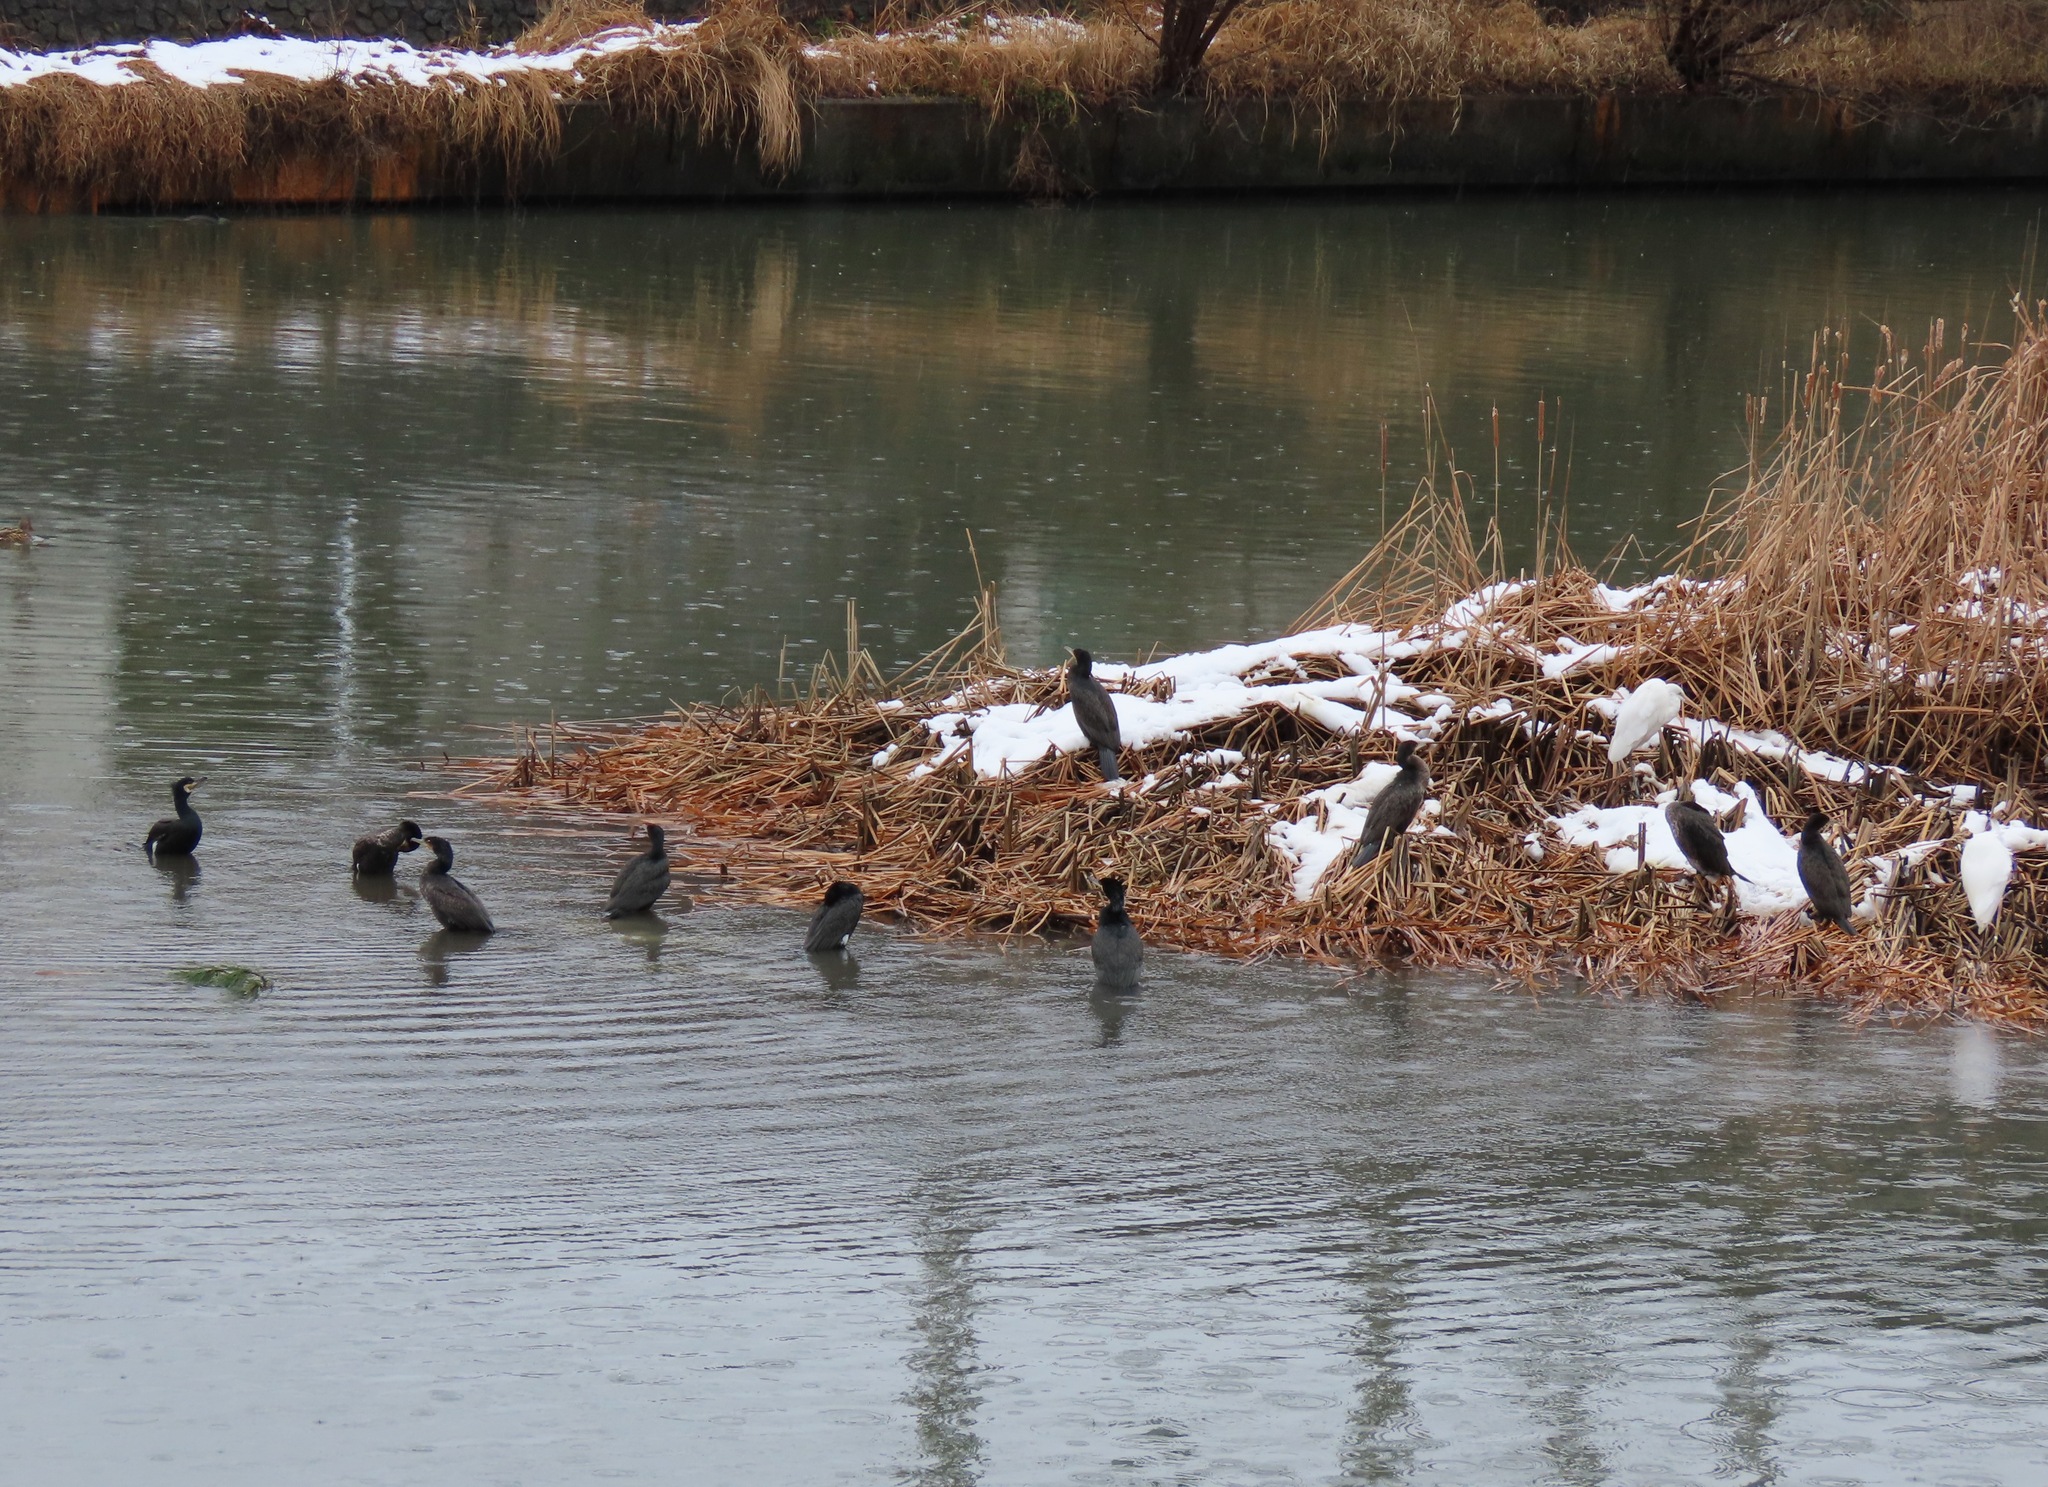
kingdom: Animalia
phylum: Chordata
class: Aves
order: Suliformes
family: Phalacrocoracidae
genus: Phalacrocorax
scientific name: Phalacrocorax carbo
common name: Great cormorant
